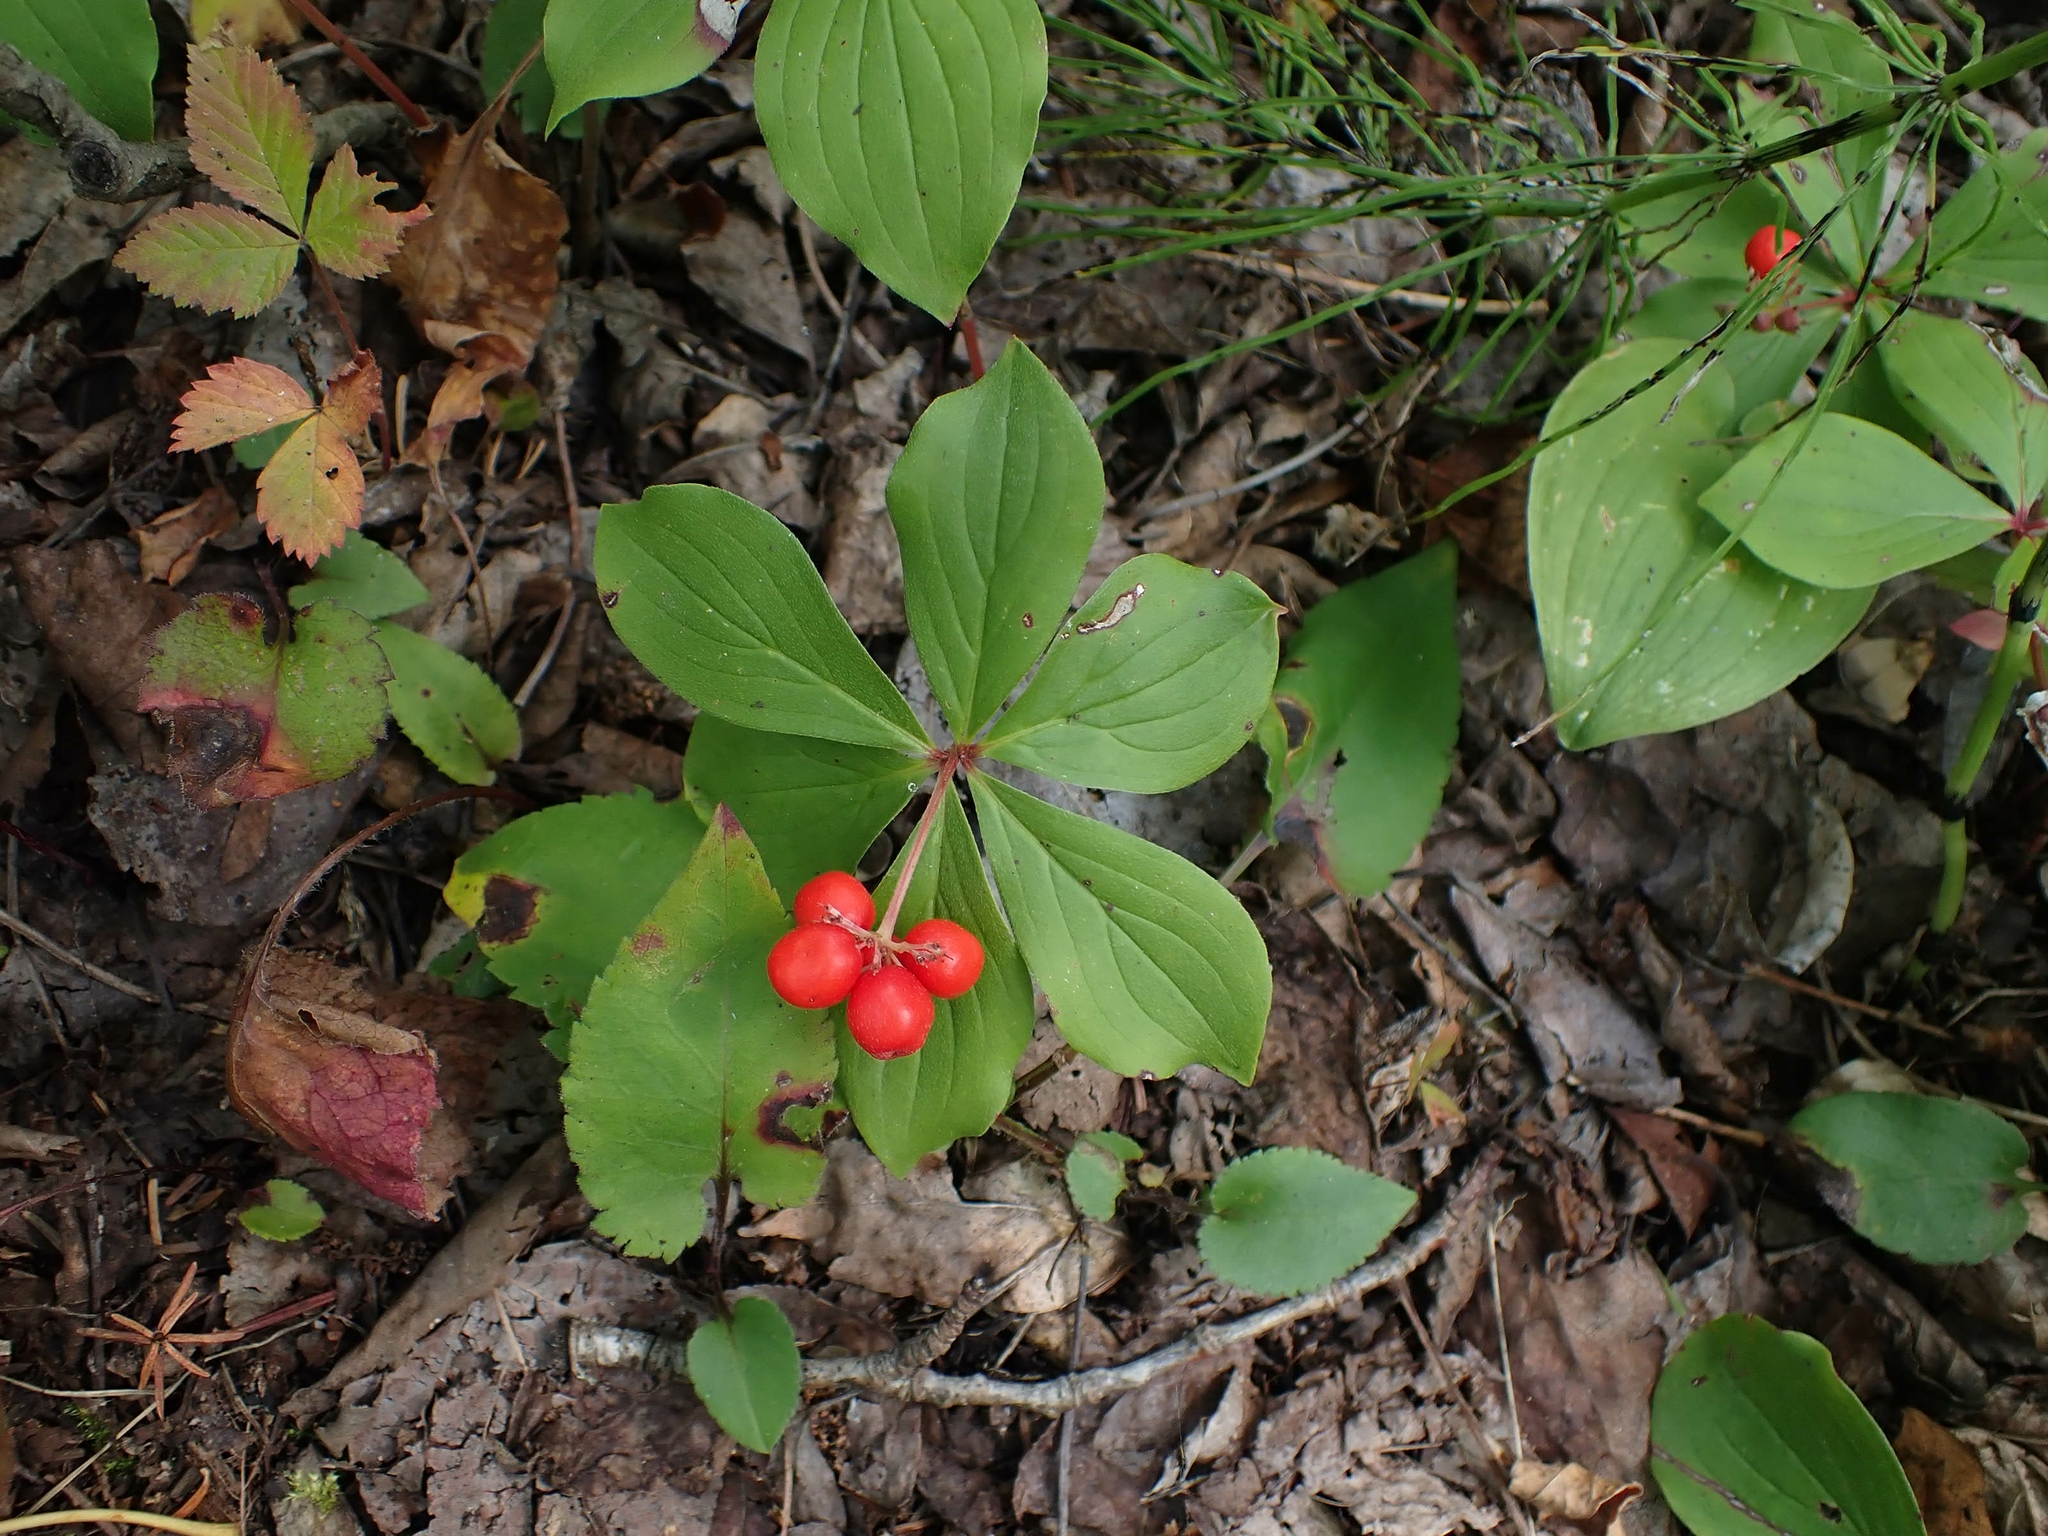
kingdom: Plantae
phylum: Tracheophyta
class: Magnoliopsida
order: Cornales
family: Cornaceae
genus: Cornus
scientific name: Cornus canadensis
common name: Creeping dogwood
